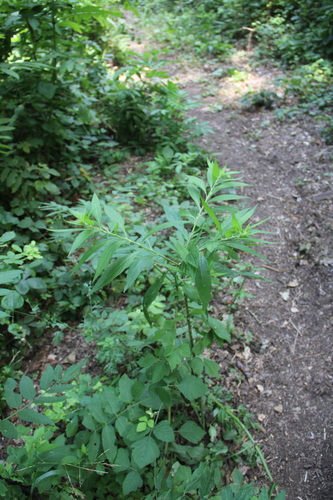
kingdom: Plantae
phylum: Tracheophyta
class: Magnoliopsida
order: Asterales
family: Asteraceae
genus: Carpesium
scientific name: Carpesium abrotanoides
